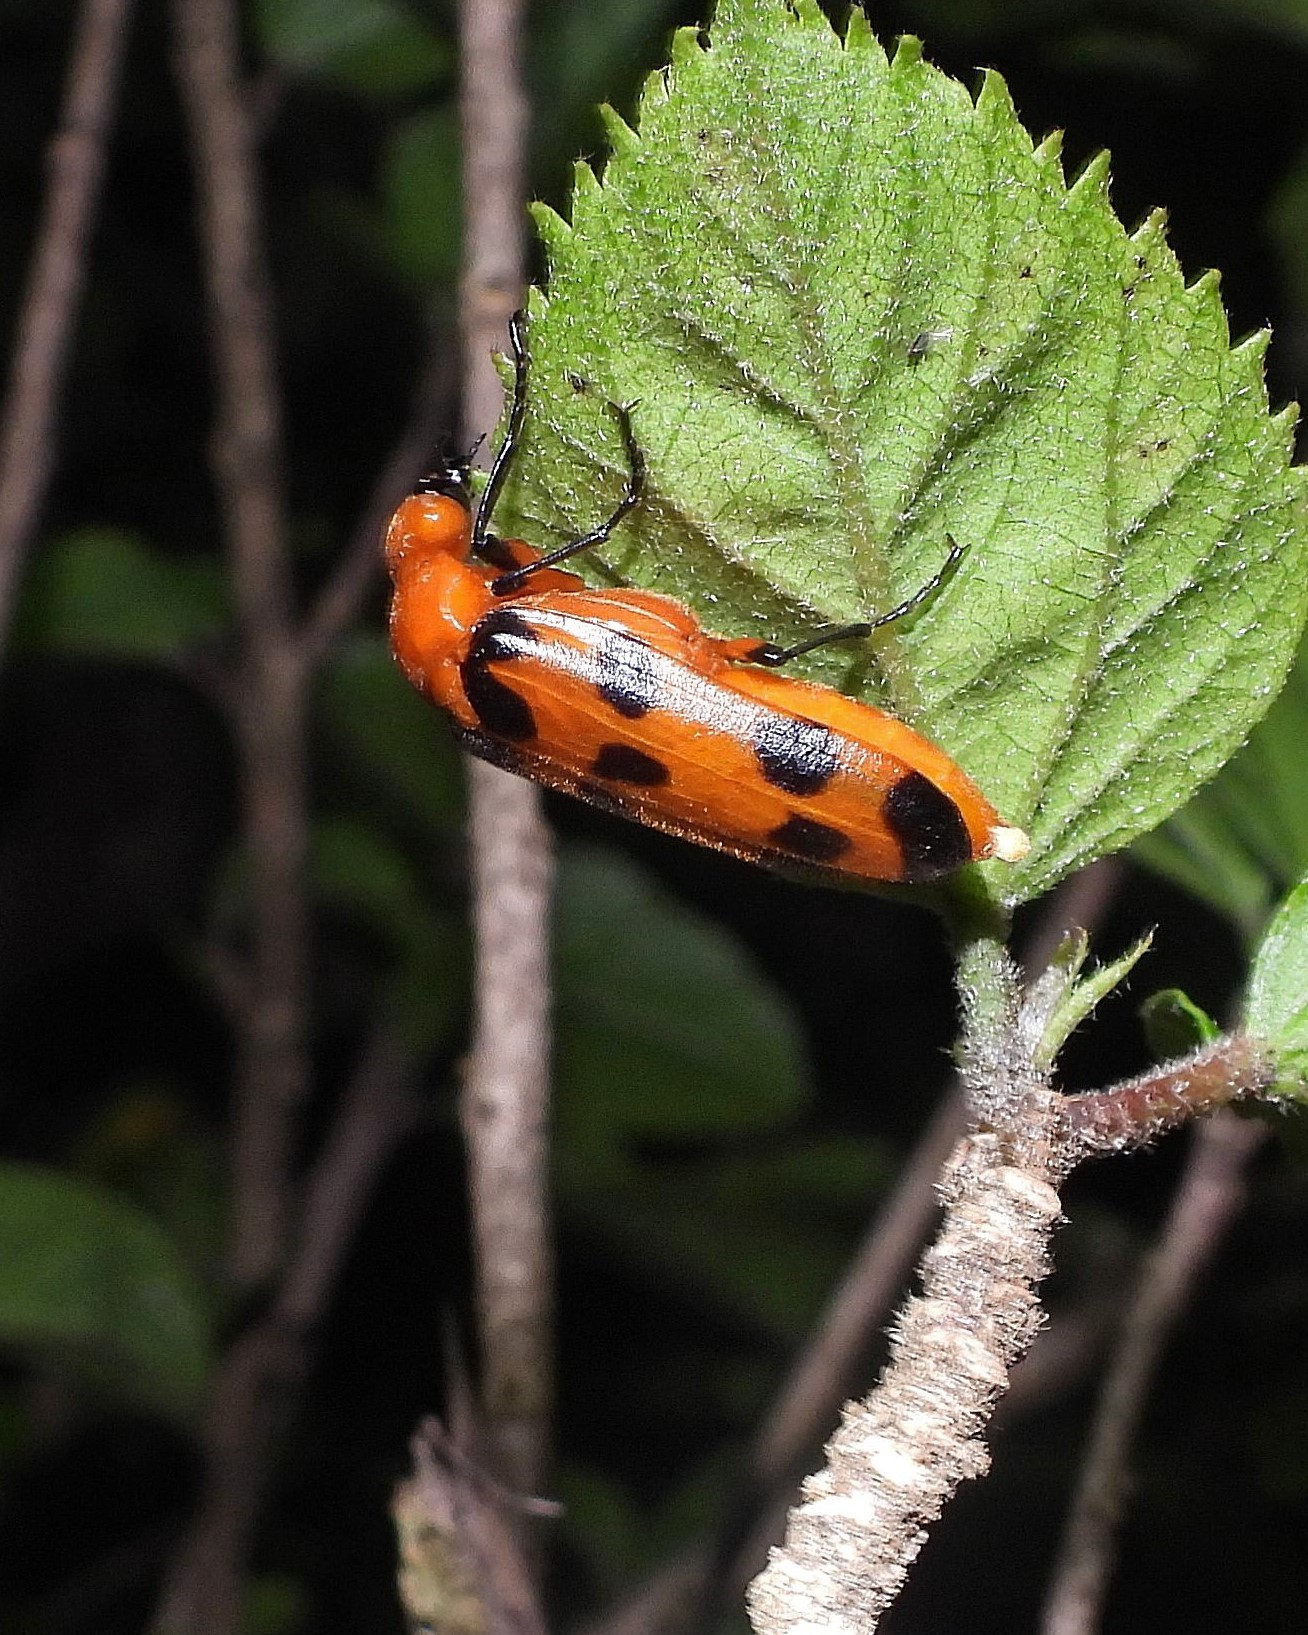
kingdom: Animalia
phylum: Arthropoda
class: Insecta
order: Coleoptera
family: Meloidae
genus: Cissites
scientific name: Cissites maculata
